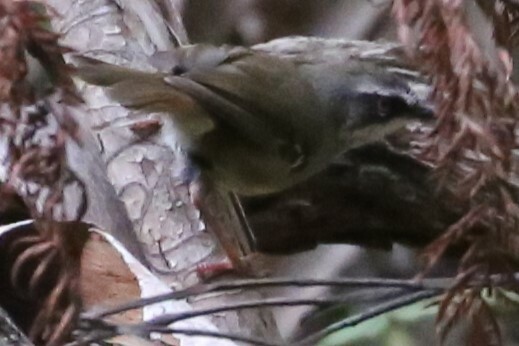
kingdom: Animalia
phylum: Chordata
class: Aves
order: Passeriformes
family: Acanthizidae
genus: Sericornis
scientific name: Sericornis frontalis
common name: White-browed scrubwren
